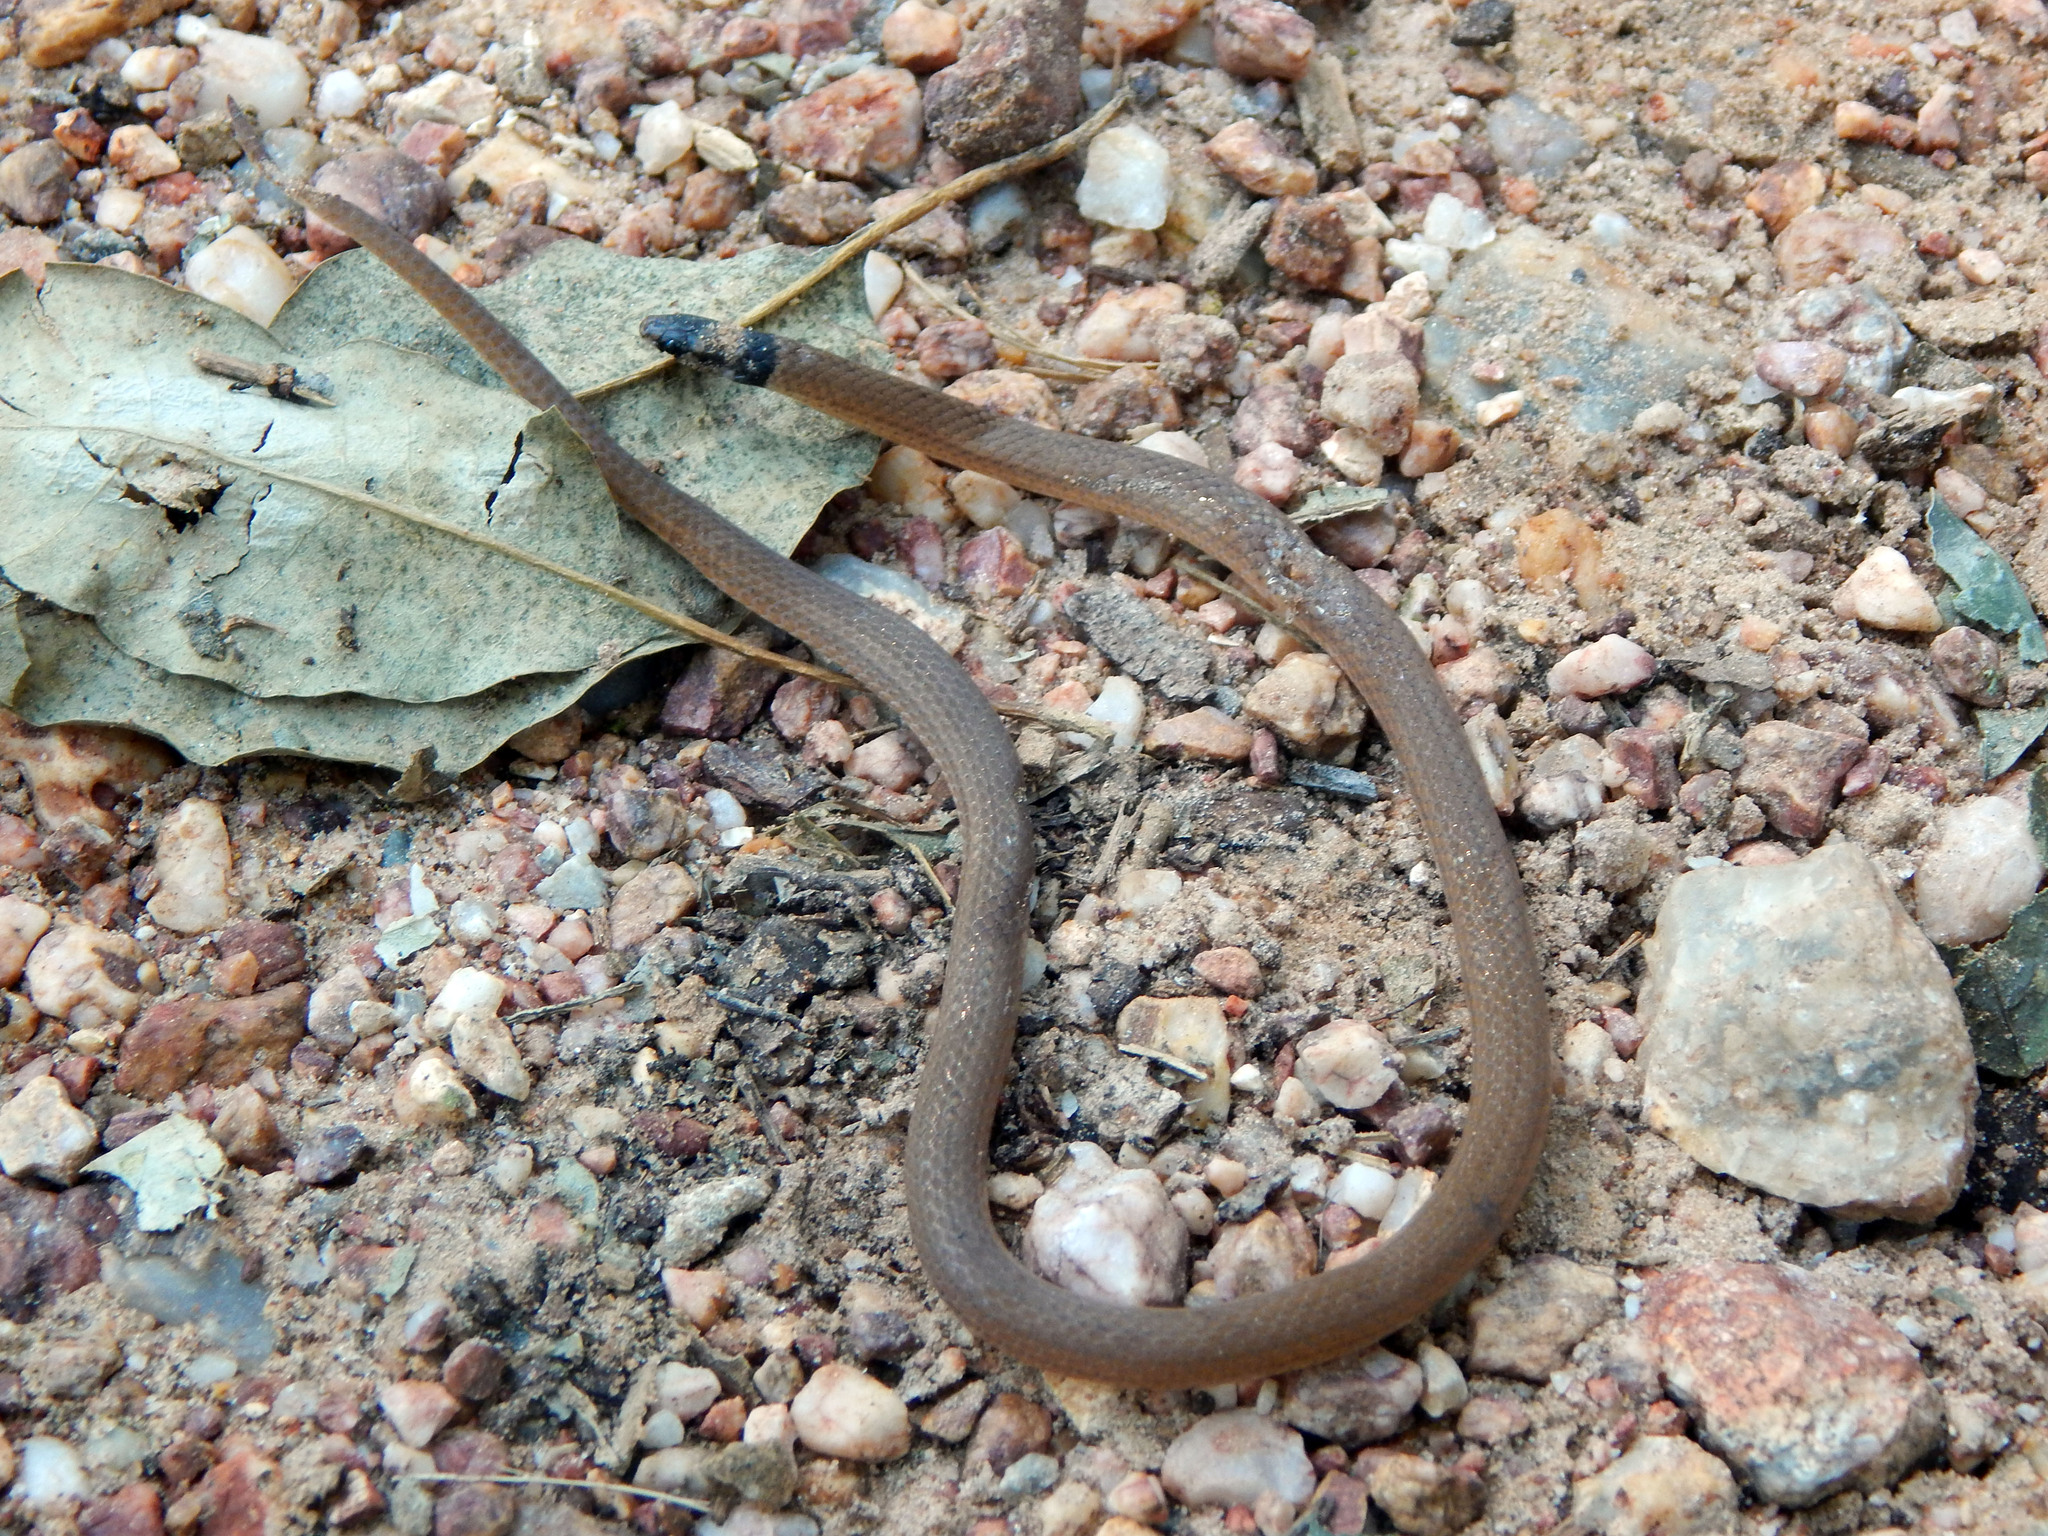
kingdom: Animalia
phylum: Chordata
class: Squamata
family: Colubridae
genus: Tantilla
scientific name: Tantilla melanocephala
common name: Black-headed snake
